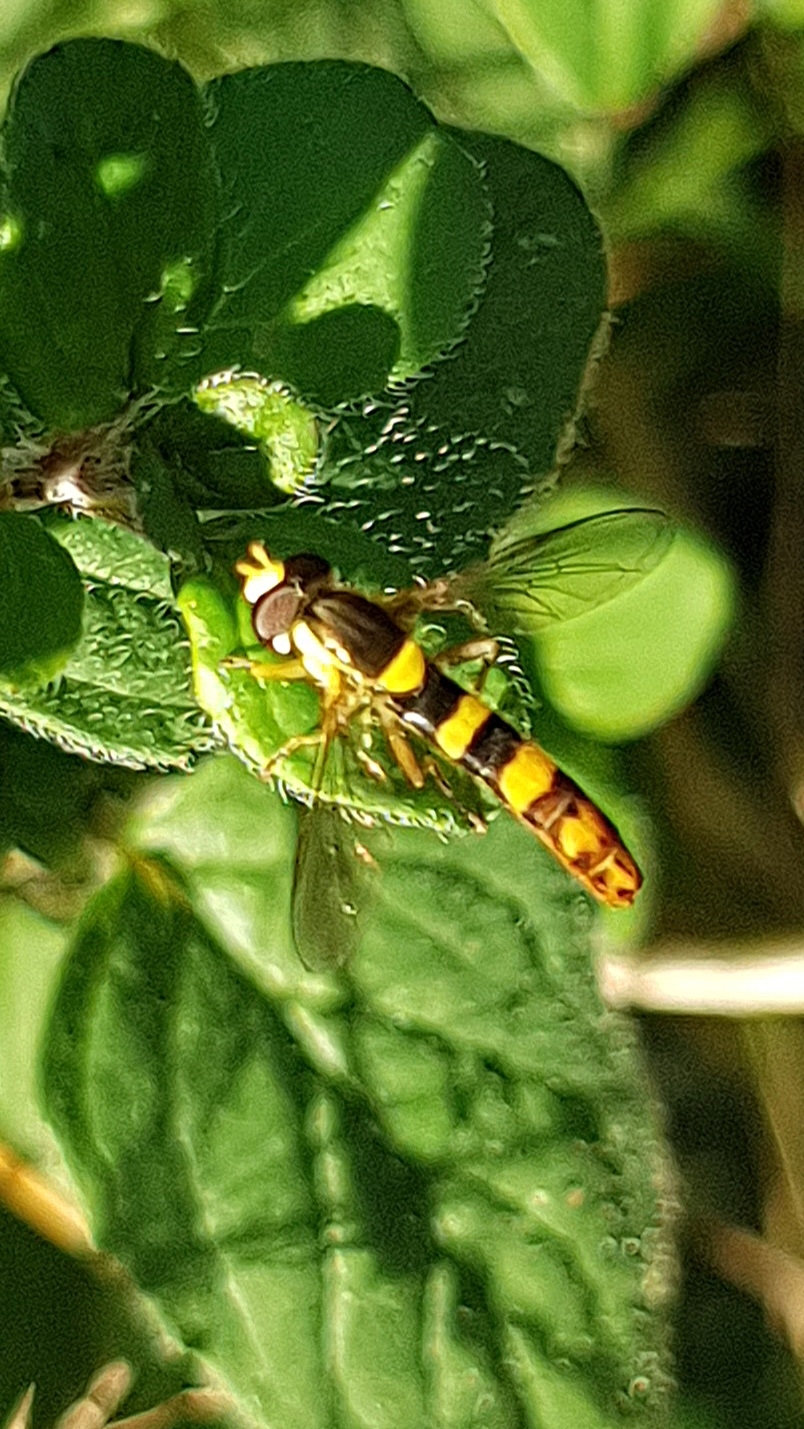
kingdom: Animalia
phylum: Arthropoda
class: Insecta
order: Diptera
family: Syrphidae
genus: Sphaerophoria
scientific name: Sphaerophoria scripta
